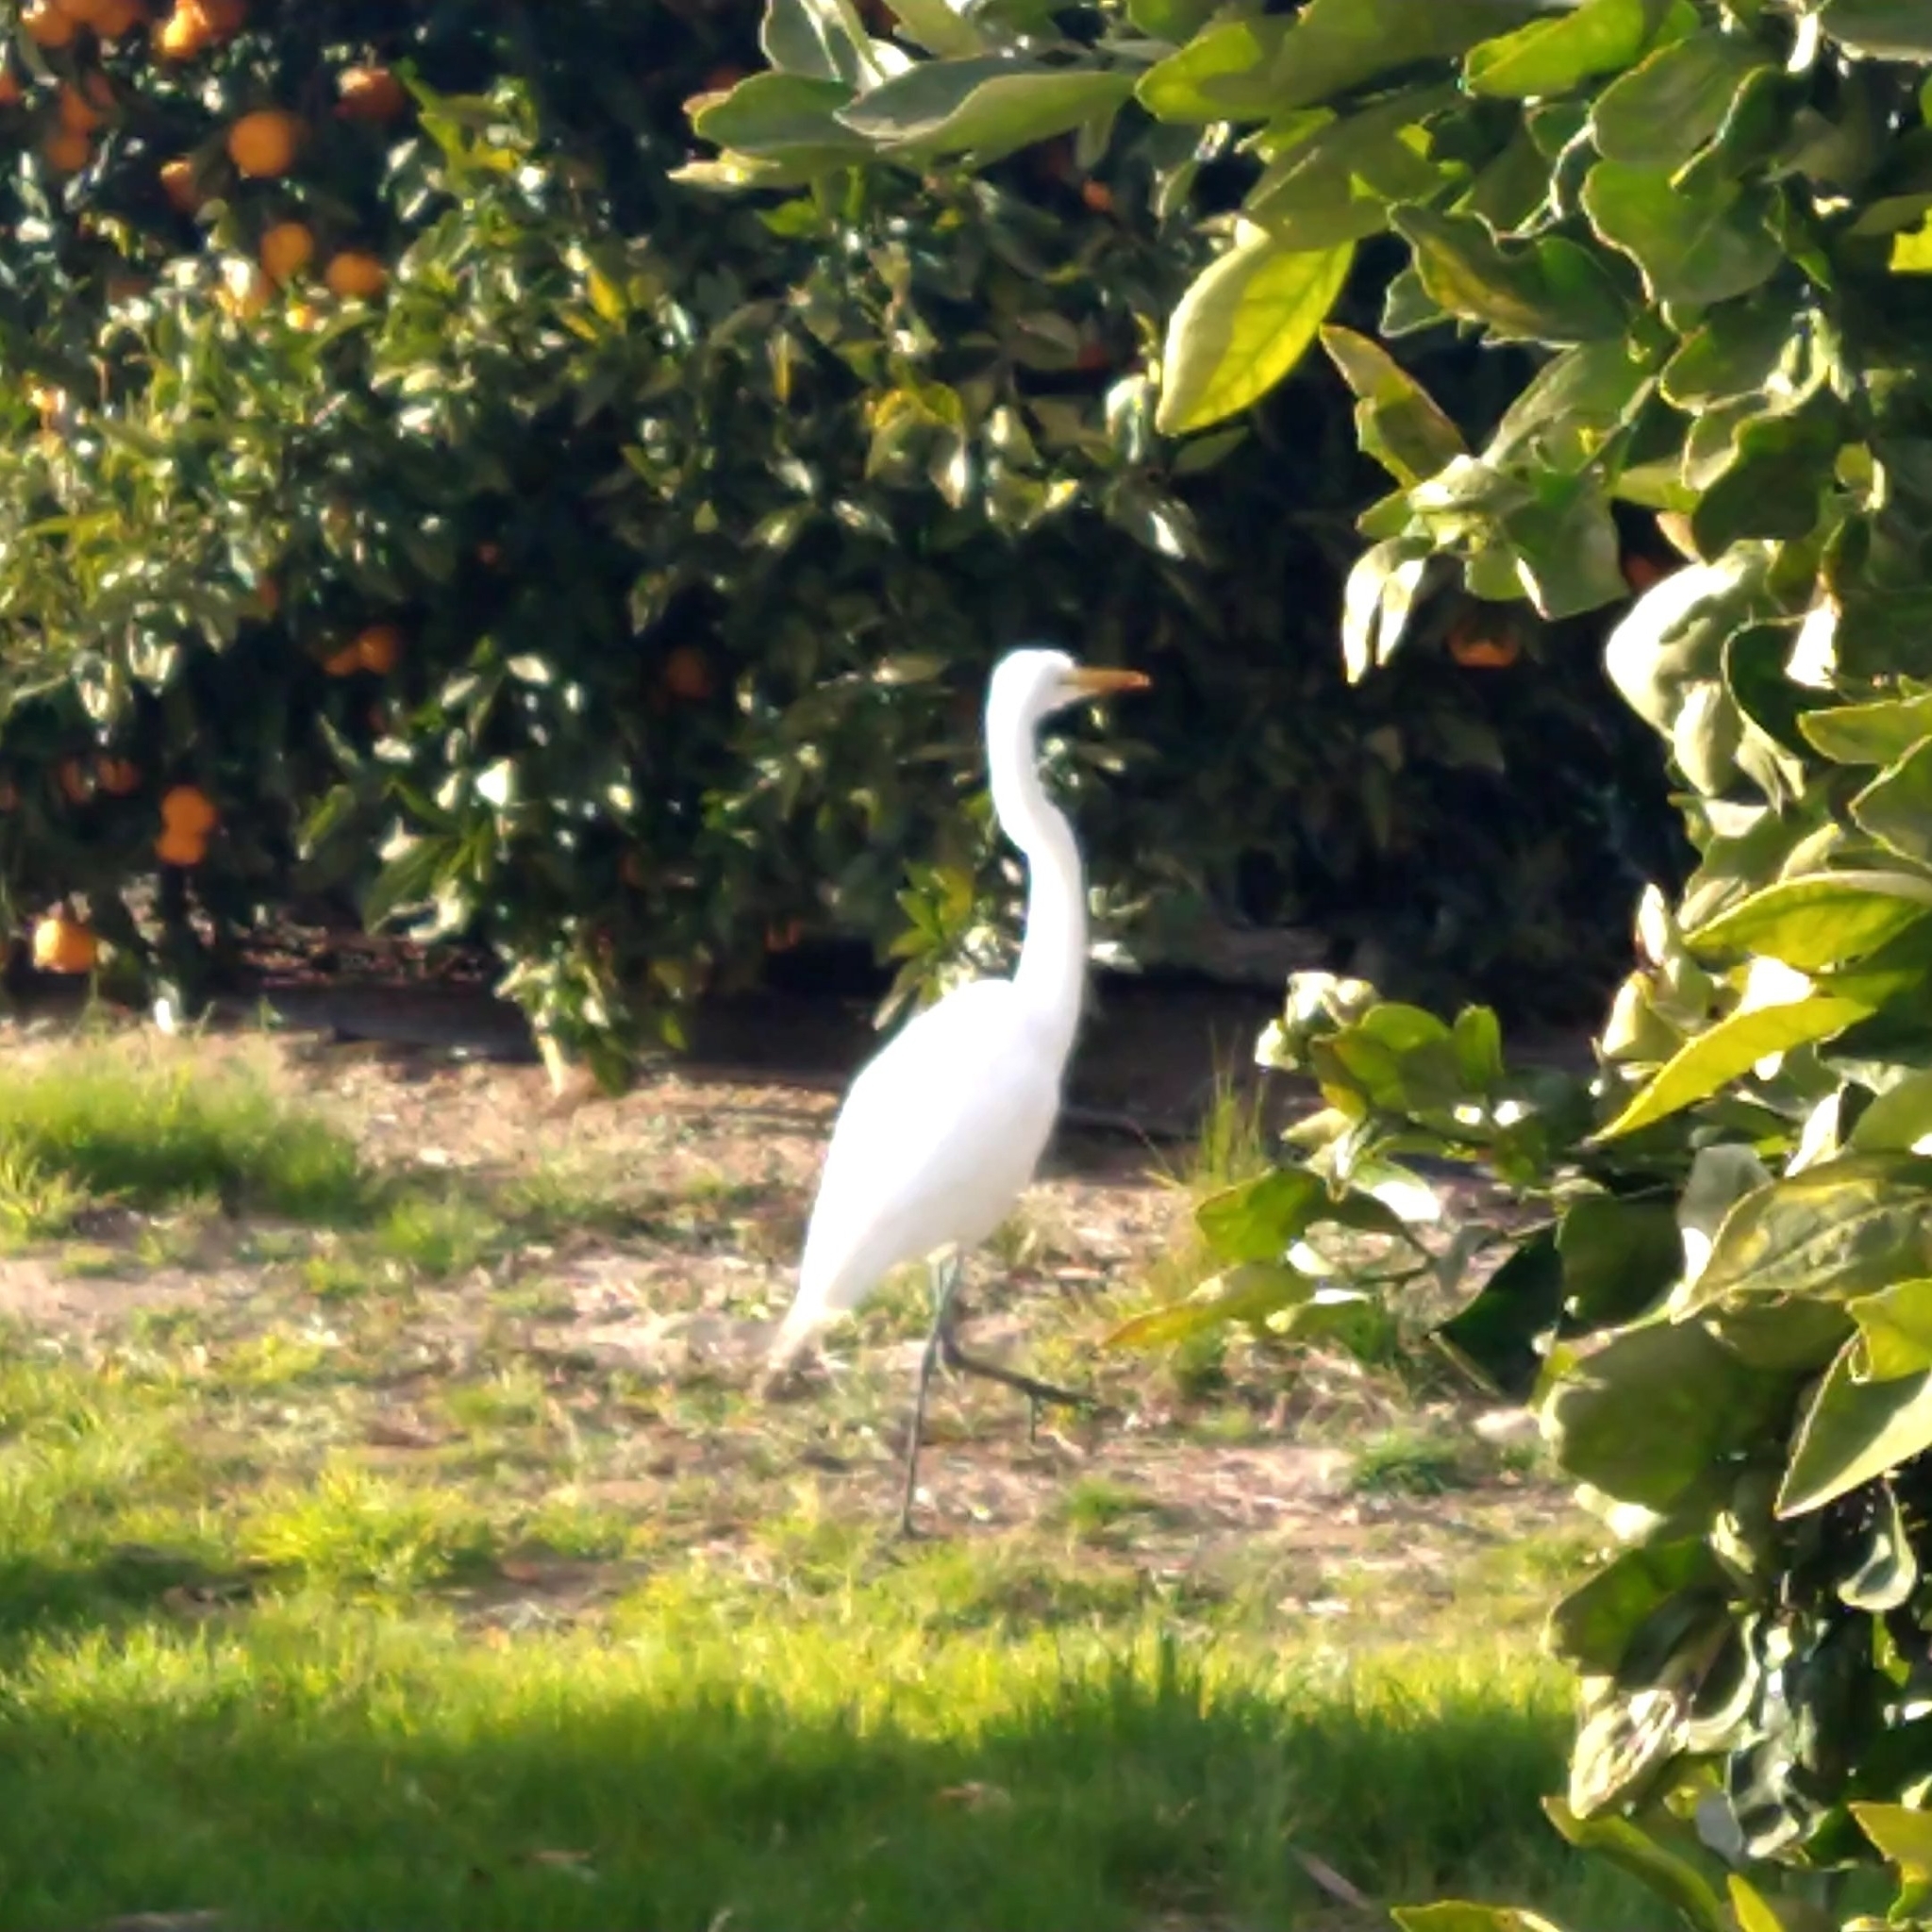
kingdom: Animalia
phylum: Chordata
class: Aves
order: Pelecaniformes
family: Ardeidae
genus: Ardea
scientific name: Ardea alba
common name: Great egret
